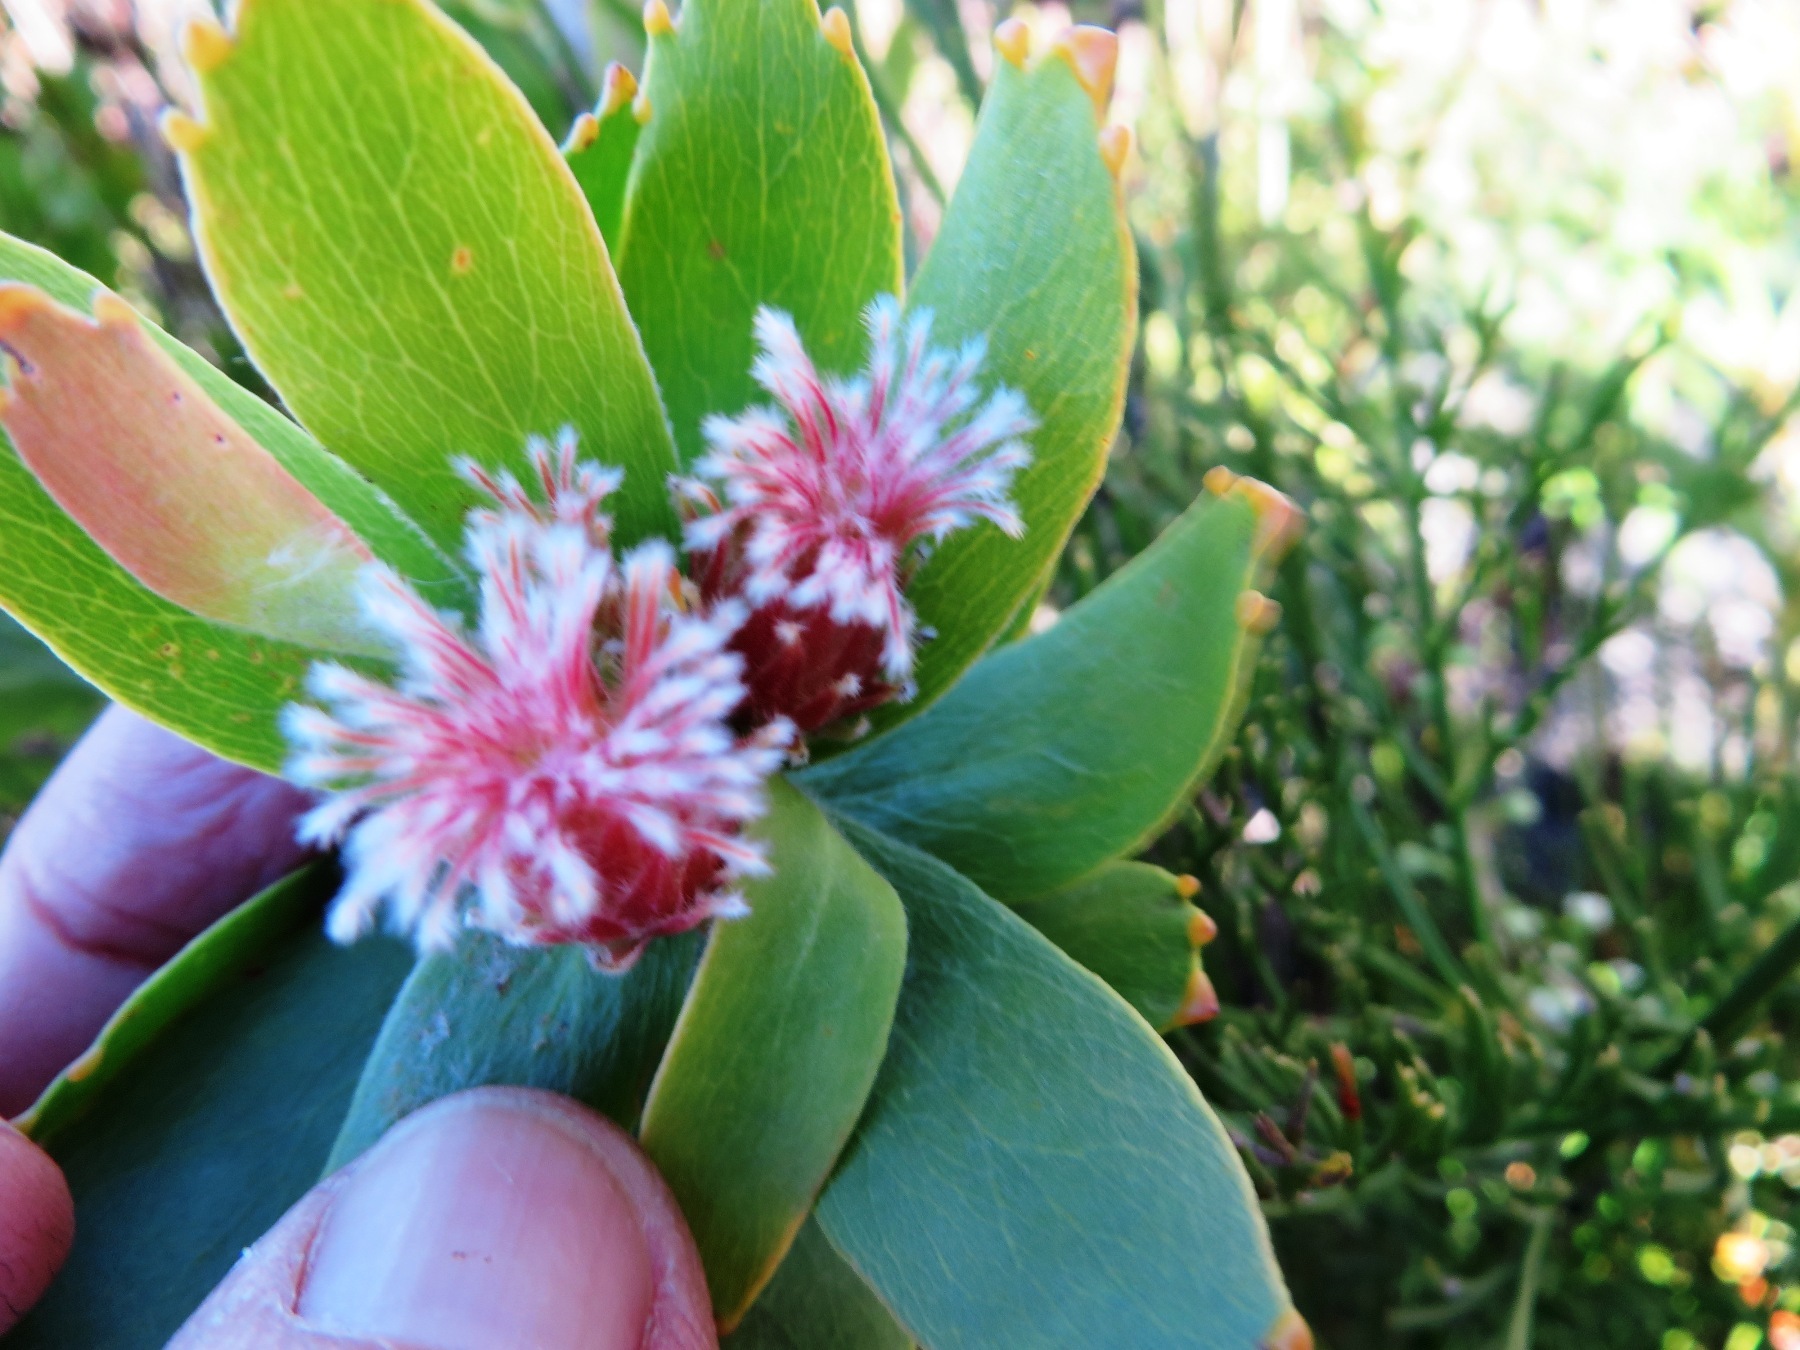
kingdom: Plantae
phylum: Tracheophyta
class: Magnoliopsida
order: Proteales
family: Proteaceae
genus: Leucospermum
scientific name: Leucospermum oleifolium
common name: Matches
